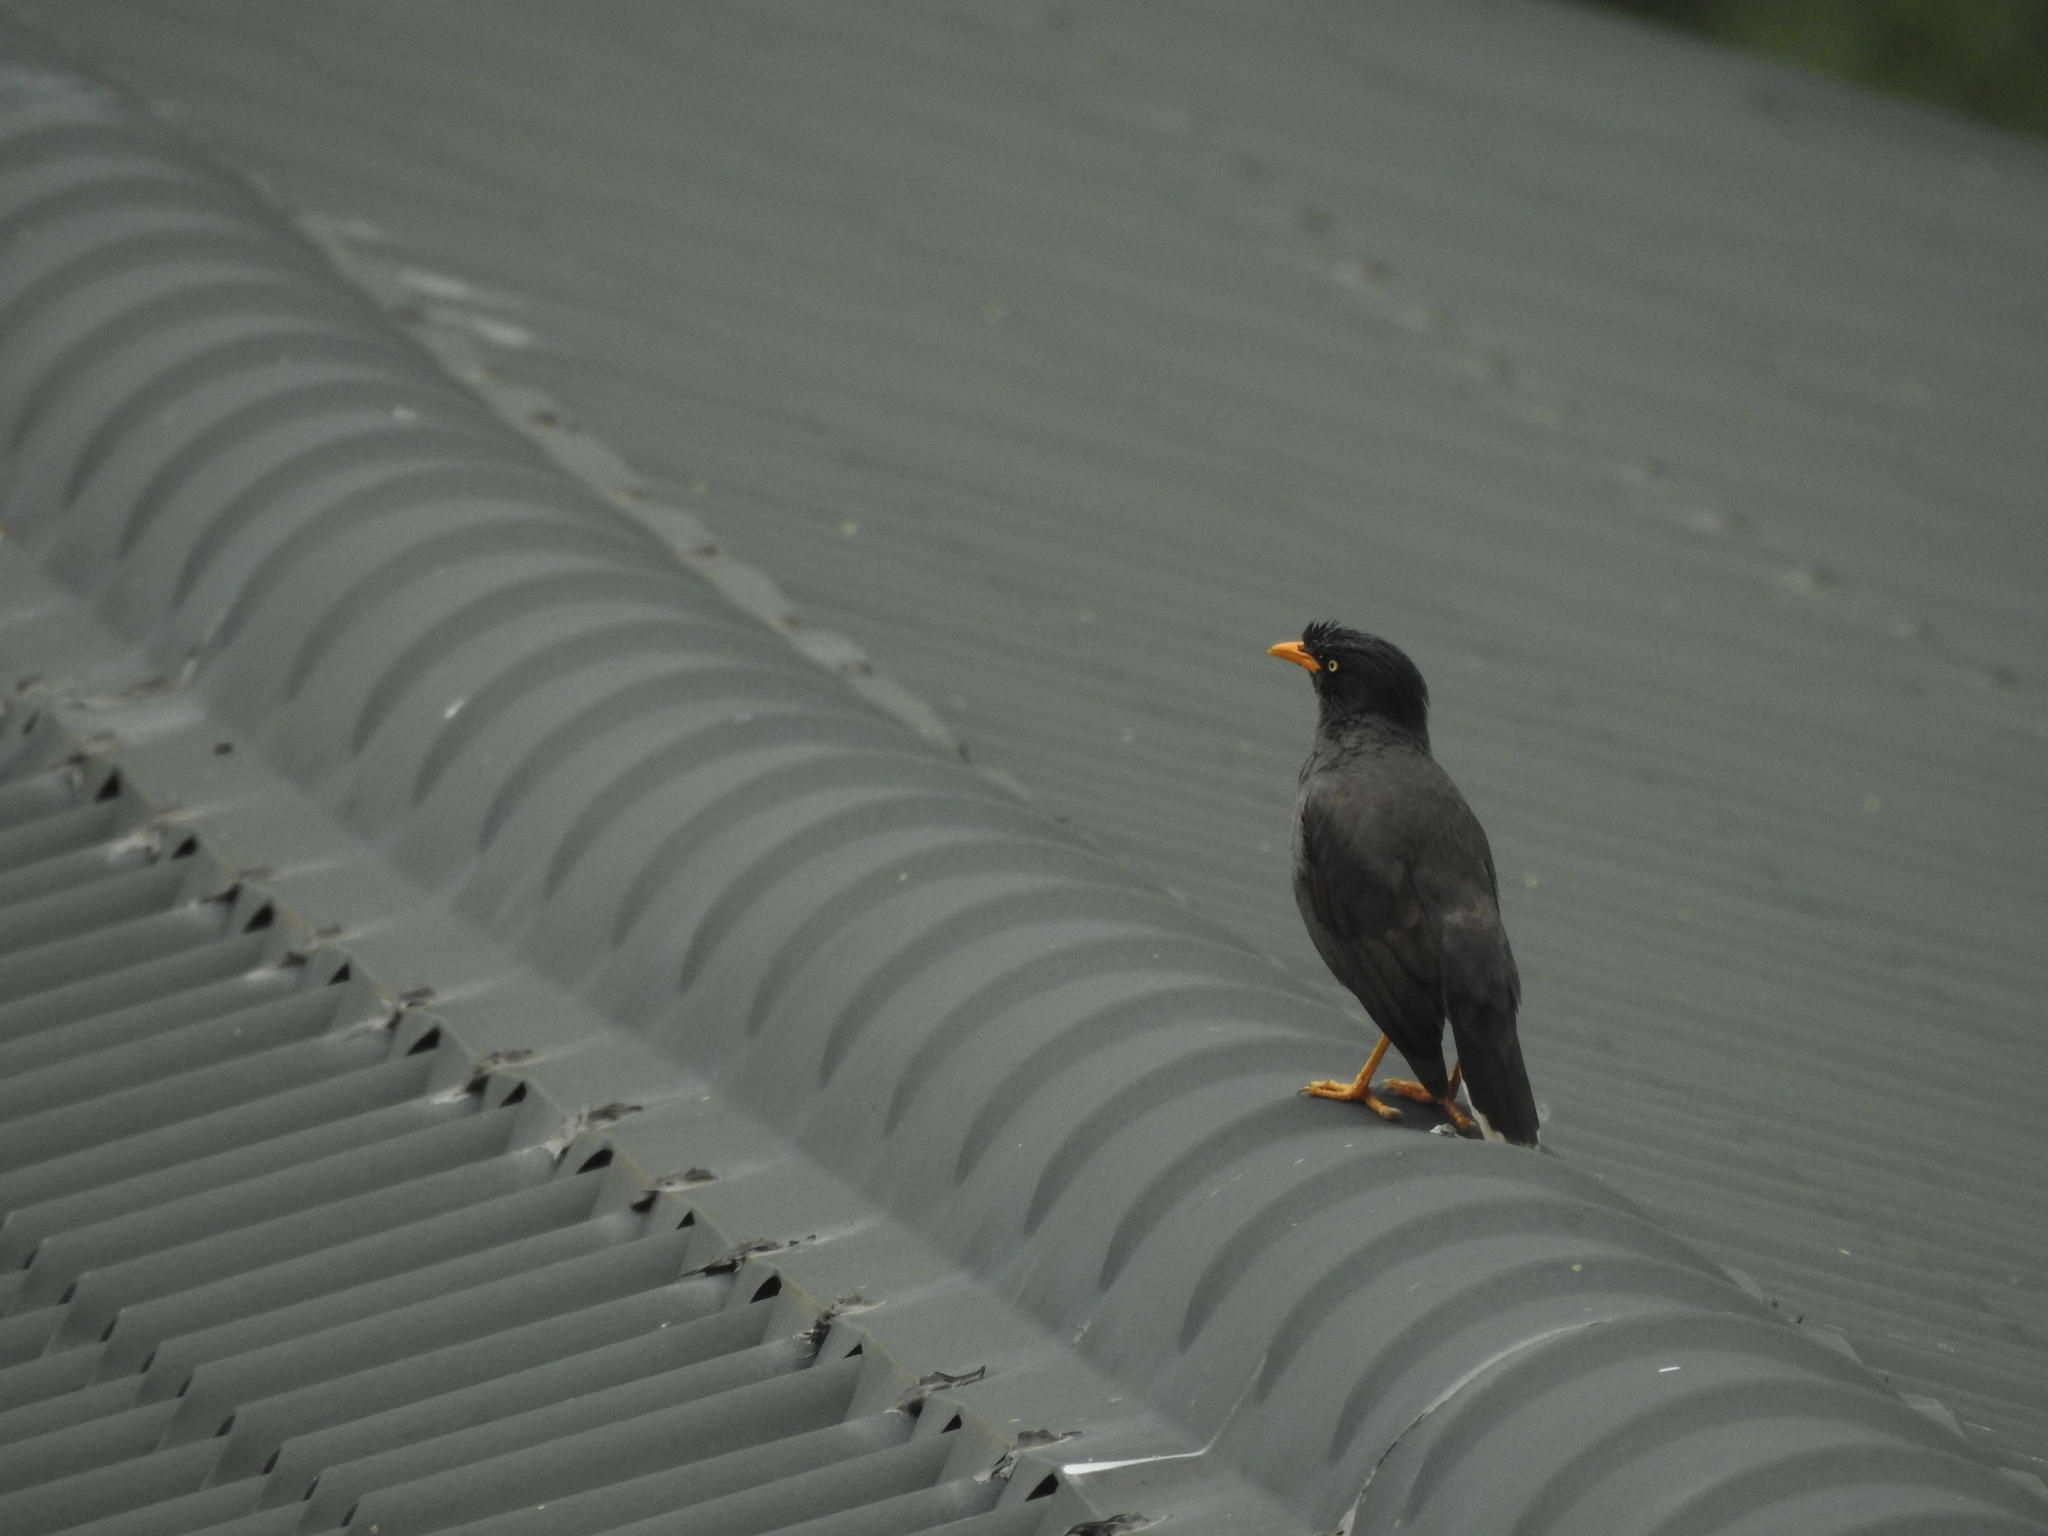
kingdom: Animalia
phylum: Chordata
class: Aves
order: Passeriformes
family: Sturnidae
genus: Acridotheres
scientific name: Acridotheres javanicus
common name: Javan myna
